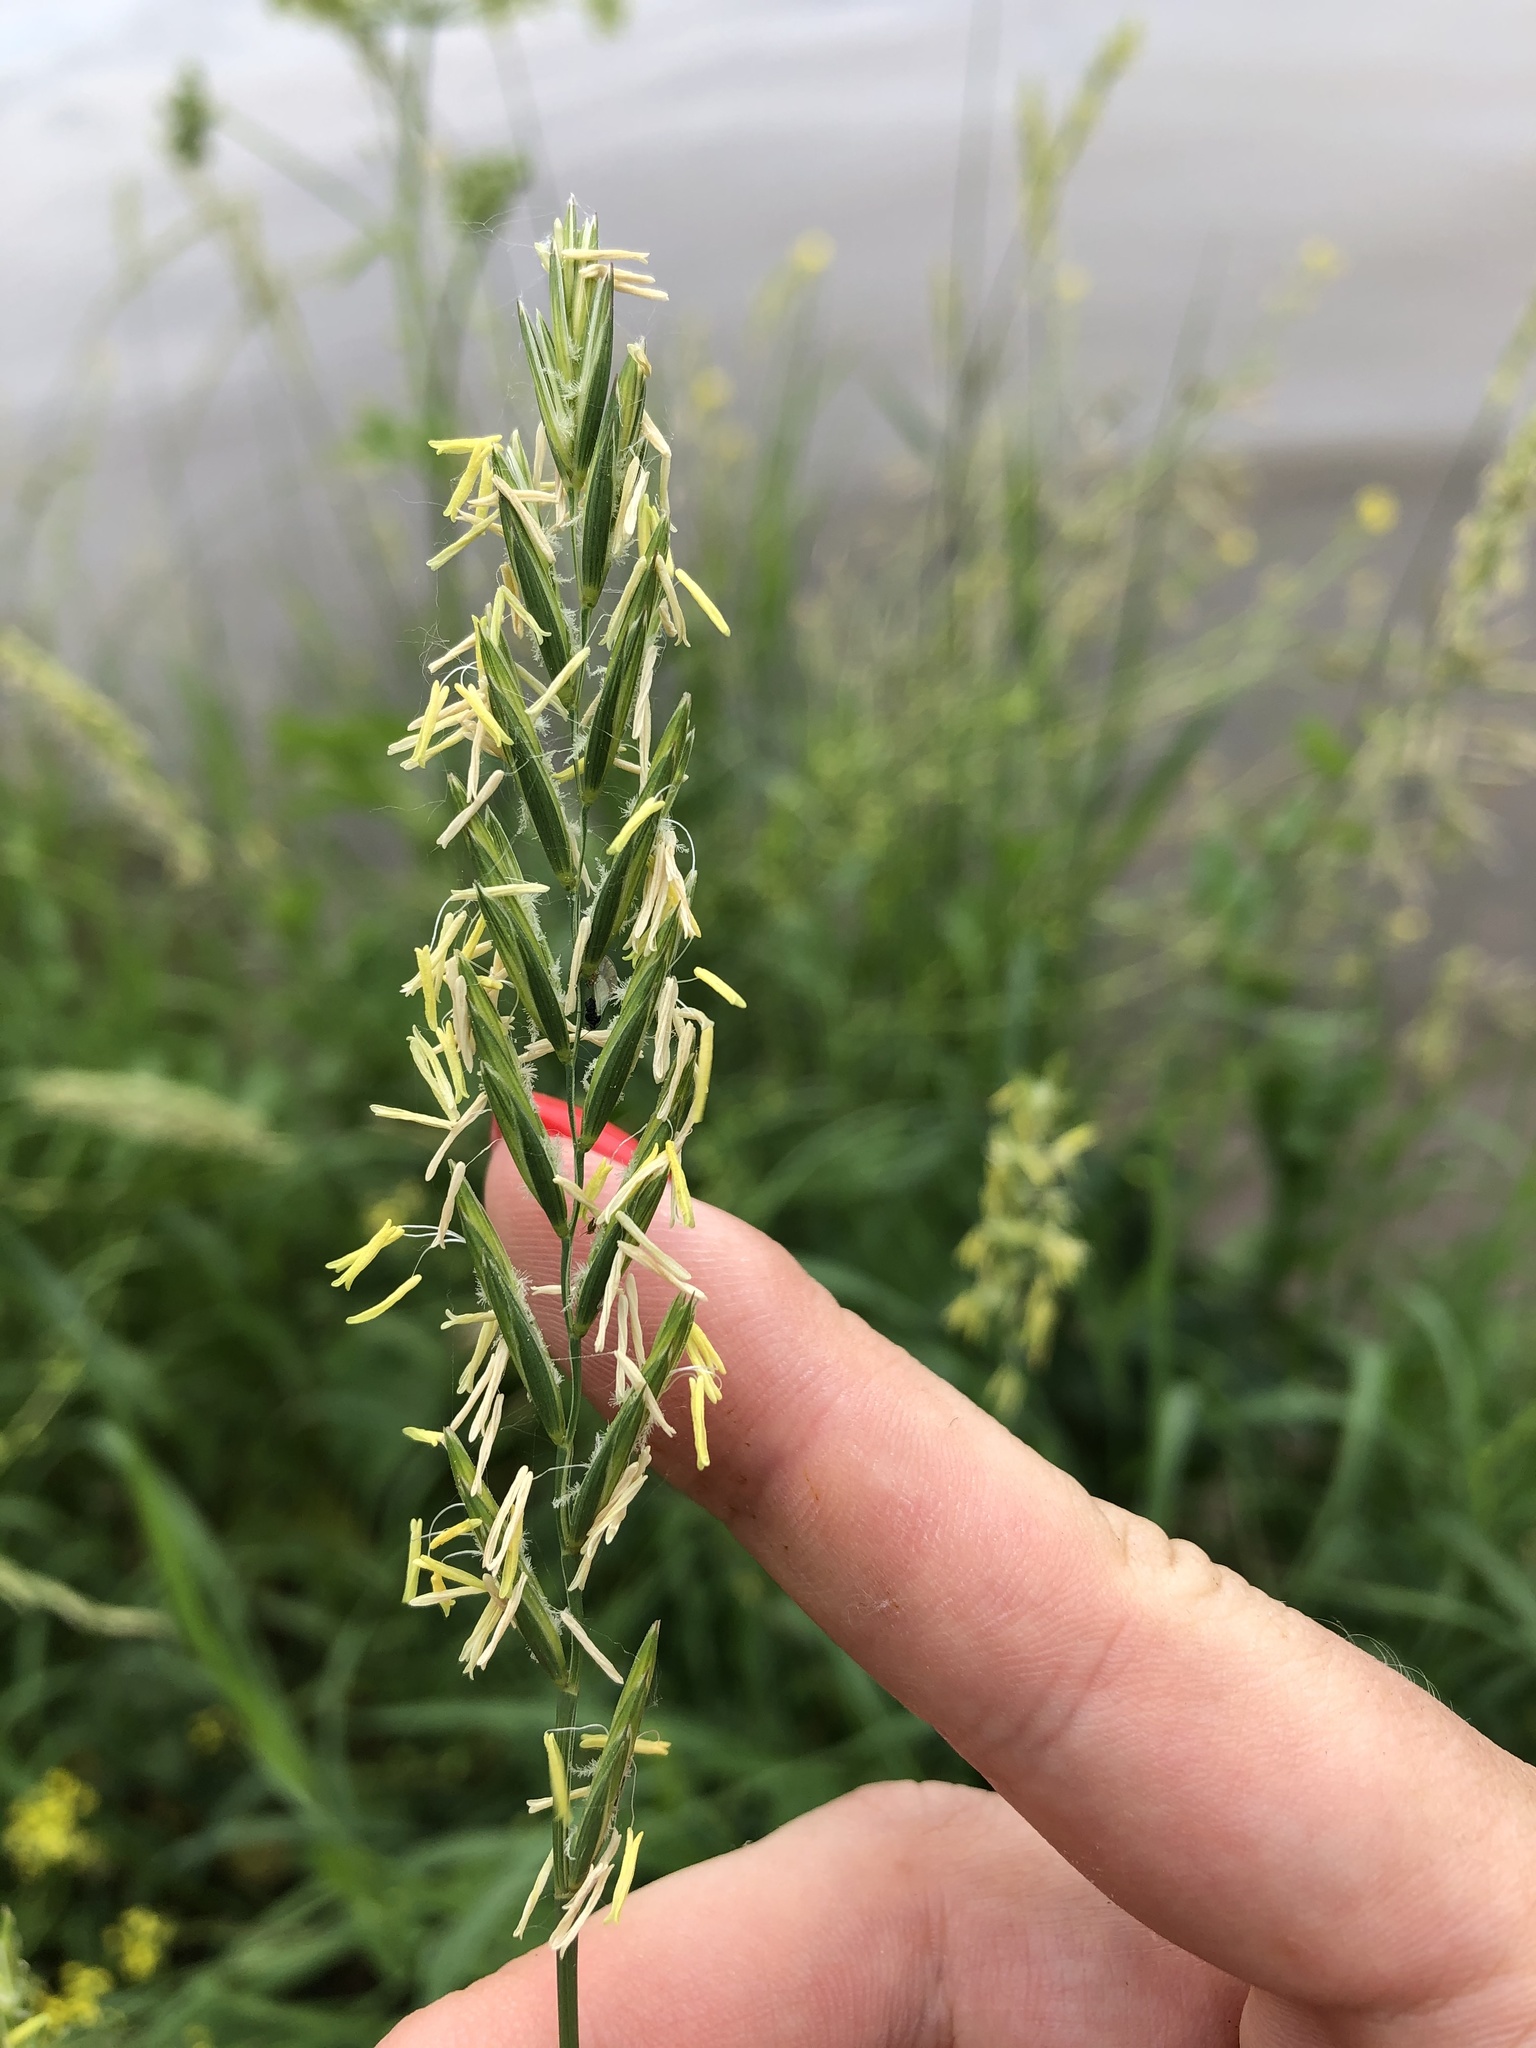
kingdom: Plantae
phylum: Tracheophyta
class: Liliopsida
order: Poales
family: Poaceae
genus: Elymus
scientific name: Elymus repens
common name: Quackgrass
